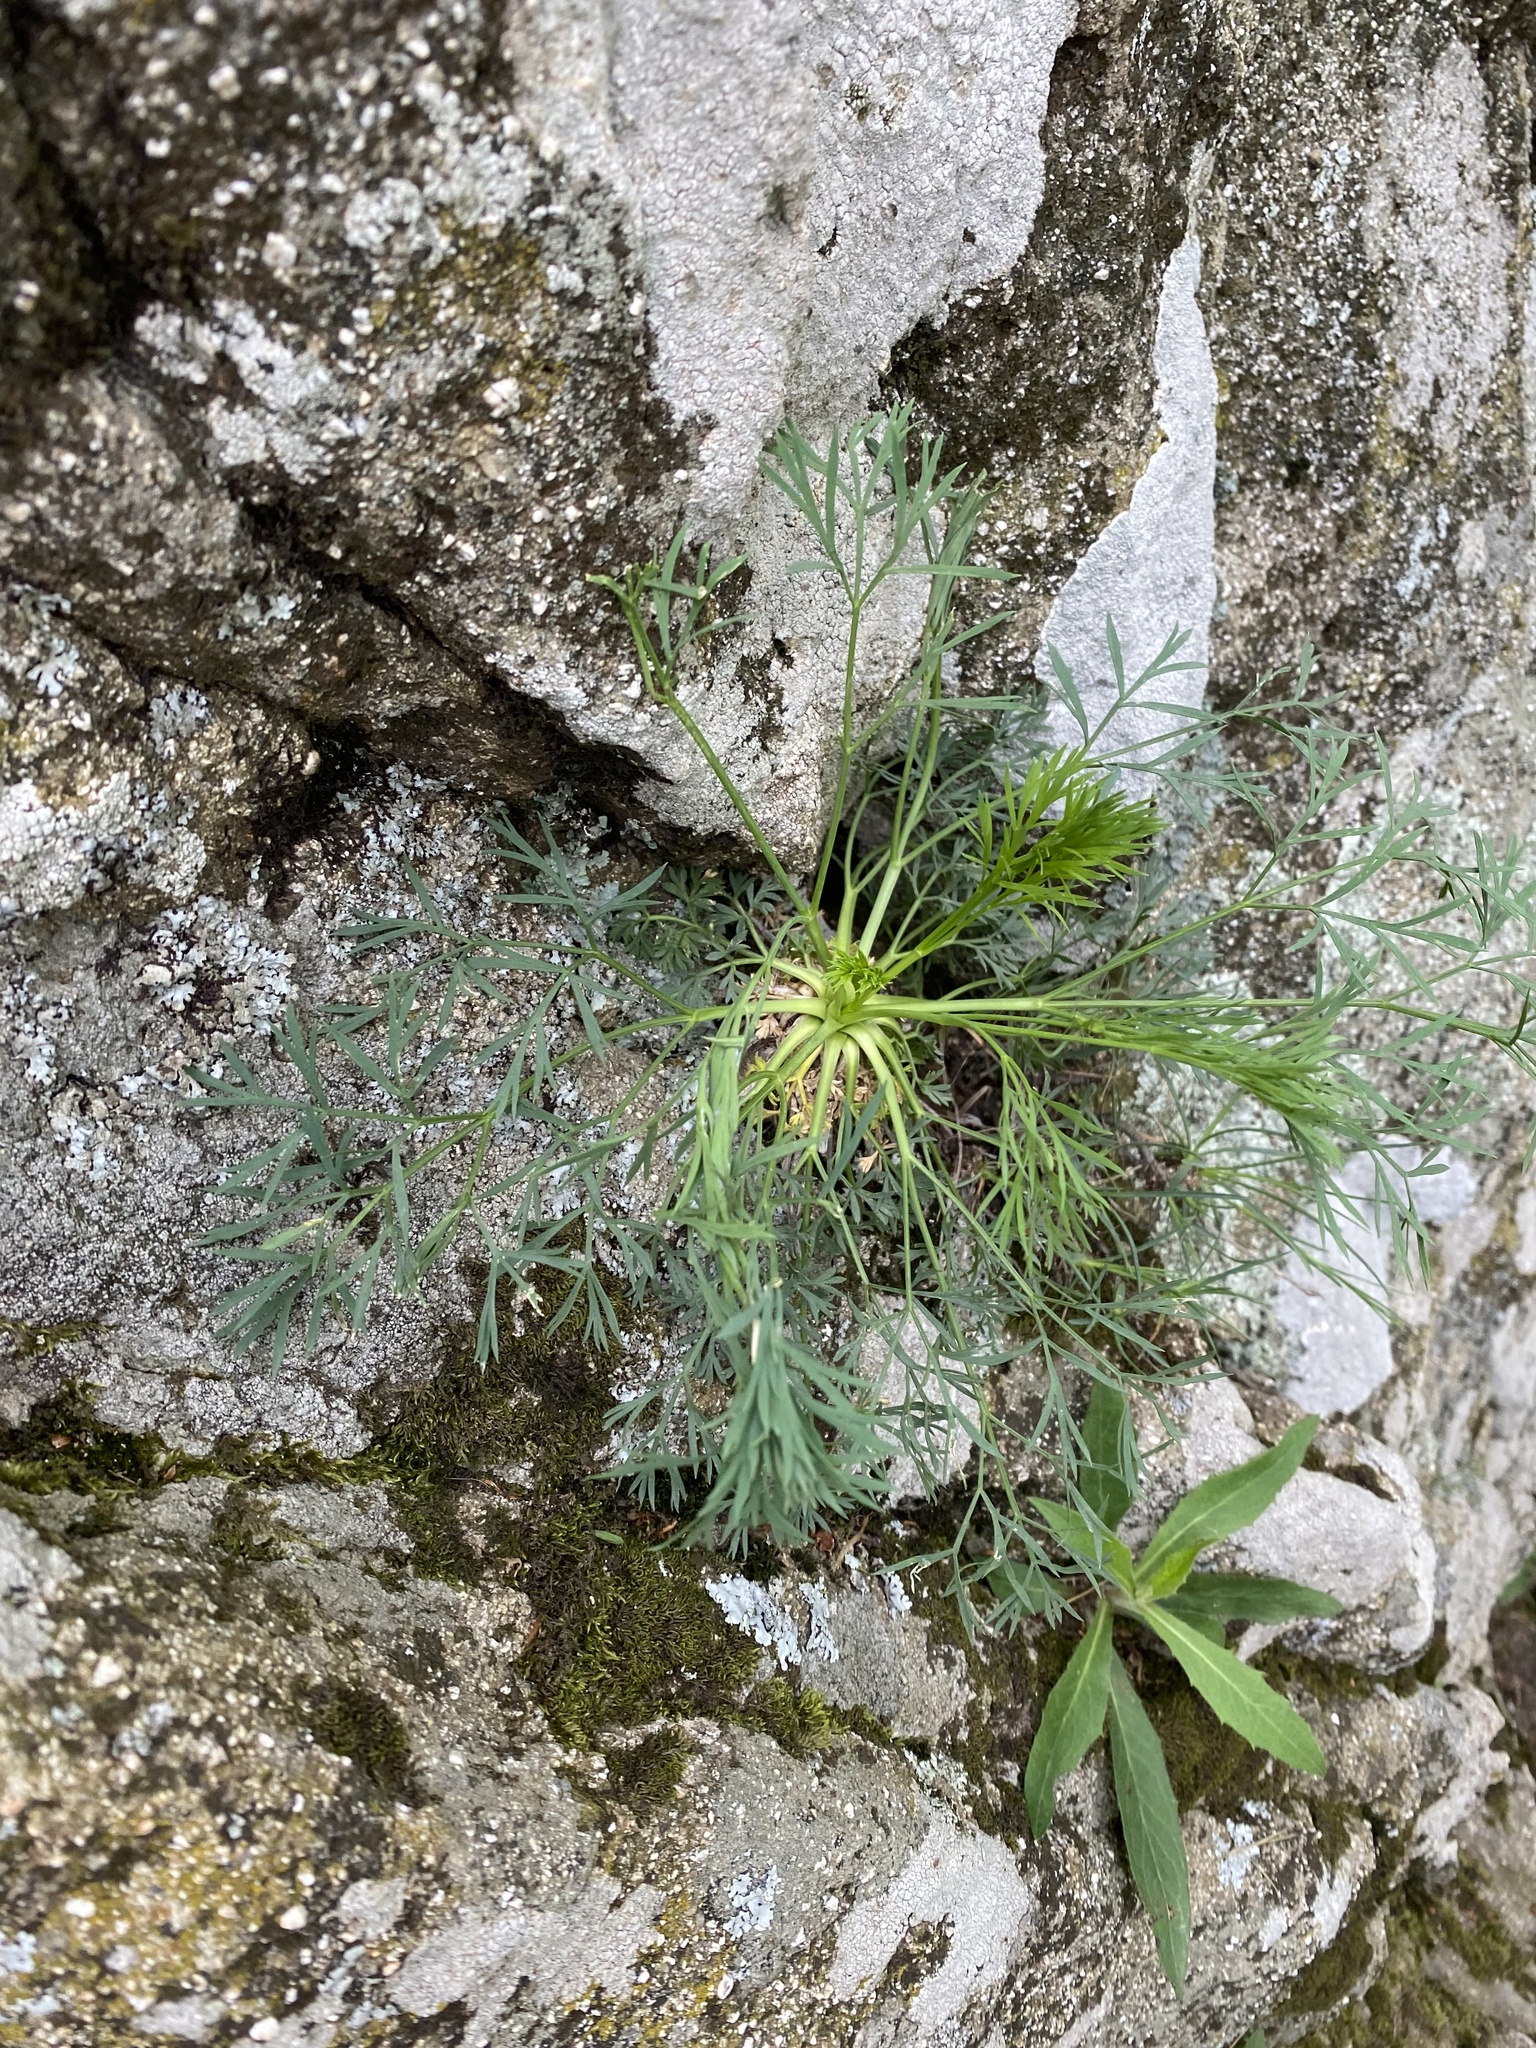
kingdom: Plantae
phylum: Tracheophyta
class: Magnoliopsida
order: Apiales
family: Apiaceae
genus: Hippomarathrum
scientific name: Hippomarathrum petraeum
